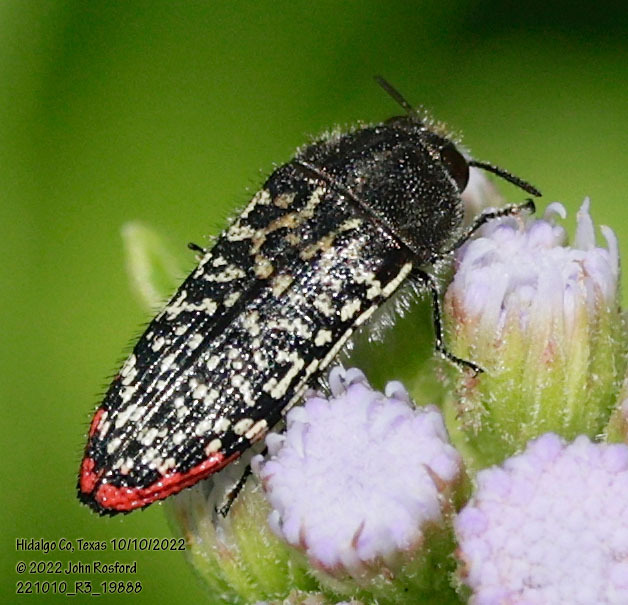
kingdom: Animalia
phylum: Arthropoda
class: Insecta
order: Coleoptera
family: Buprestidae
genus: Acmaeodera
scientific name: Acmaeodera haemorrhoa
